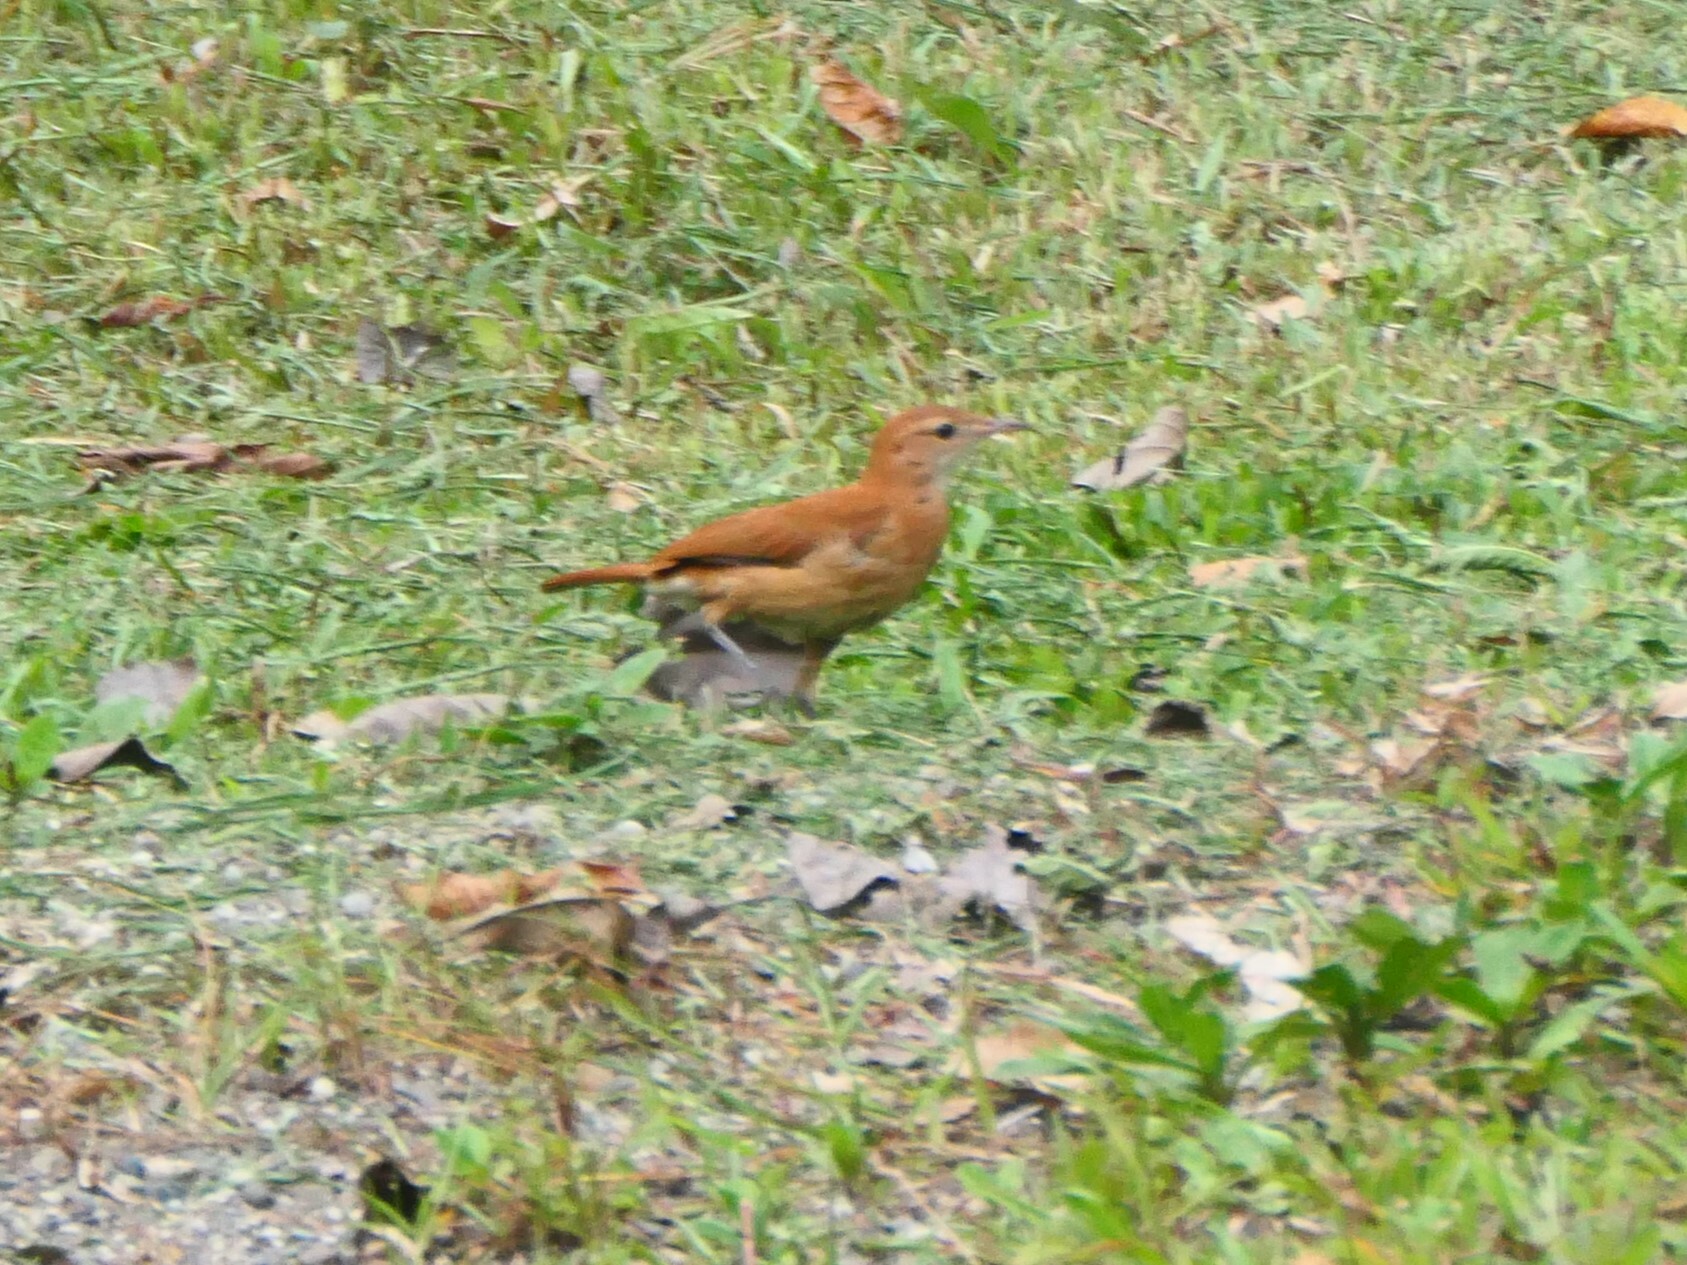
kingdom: Animalia
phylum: Chordata
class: Aves
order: Passeriformes
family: Furnariidae
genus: Furnarius
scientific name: Furnarius rufus
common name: Rufous hornero
